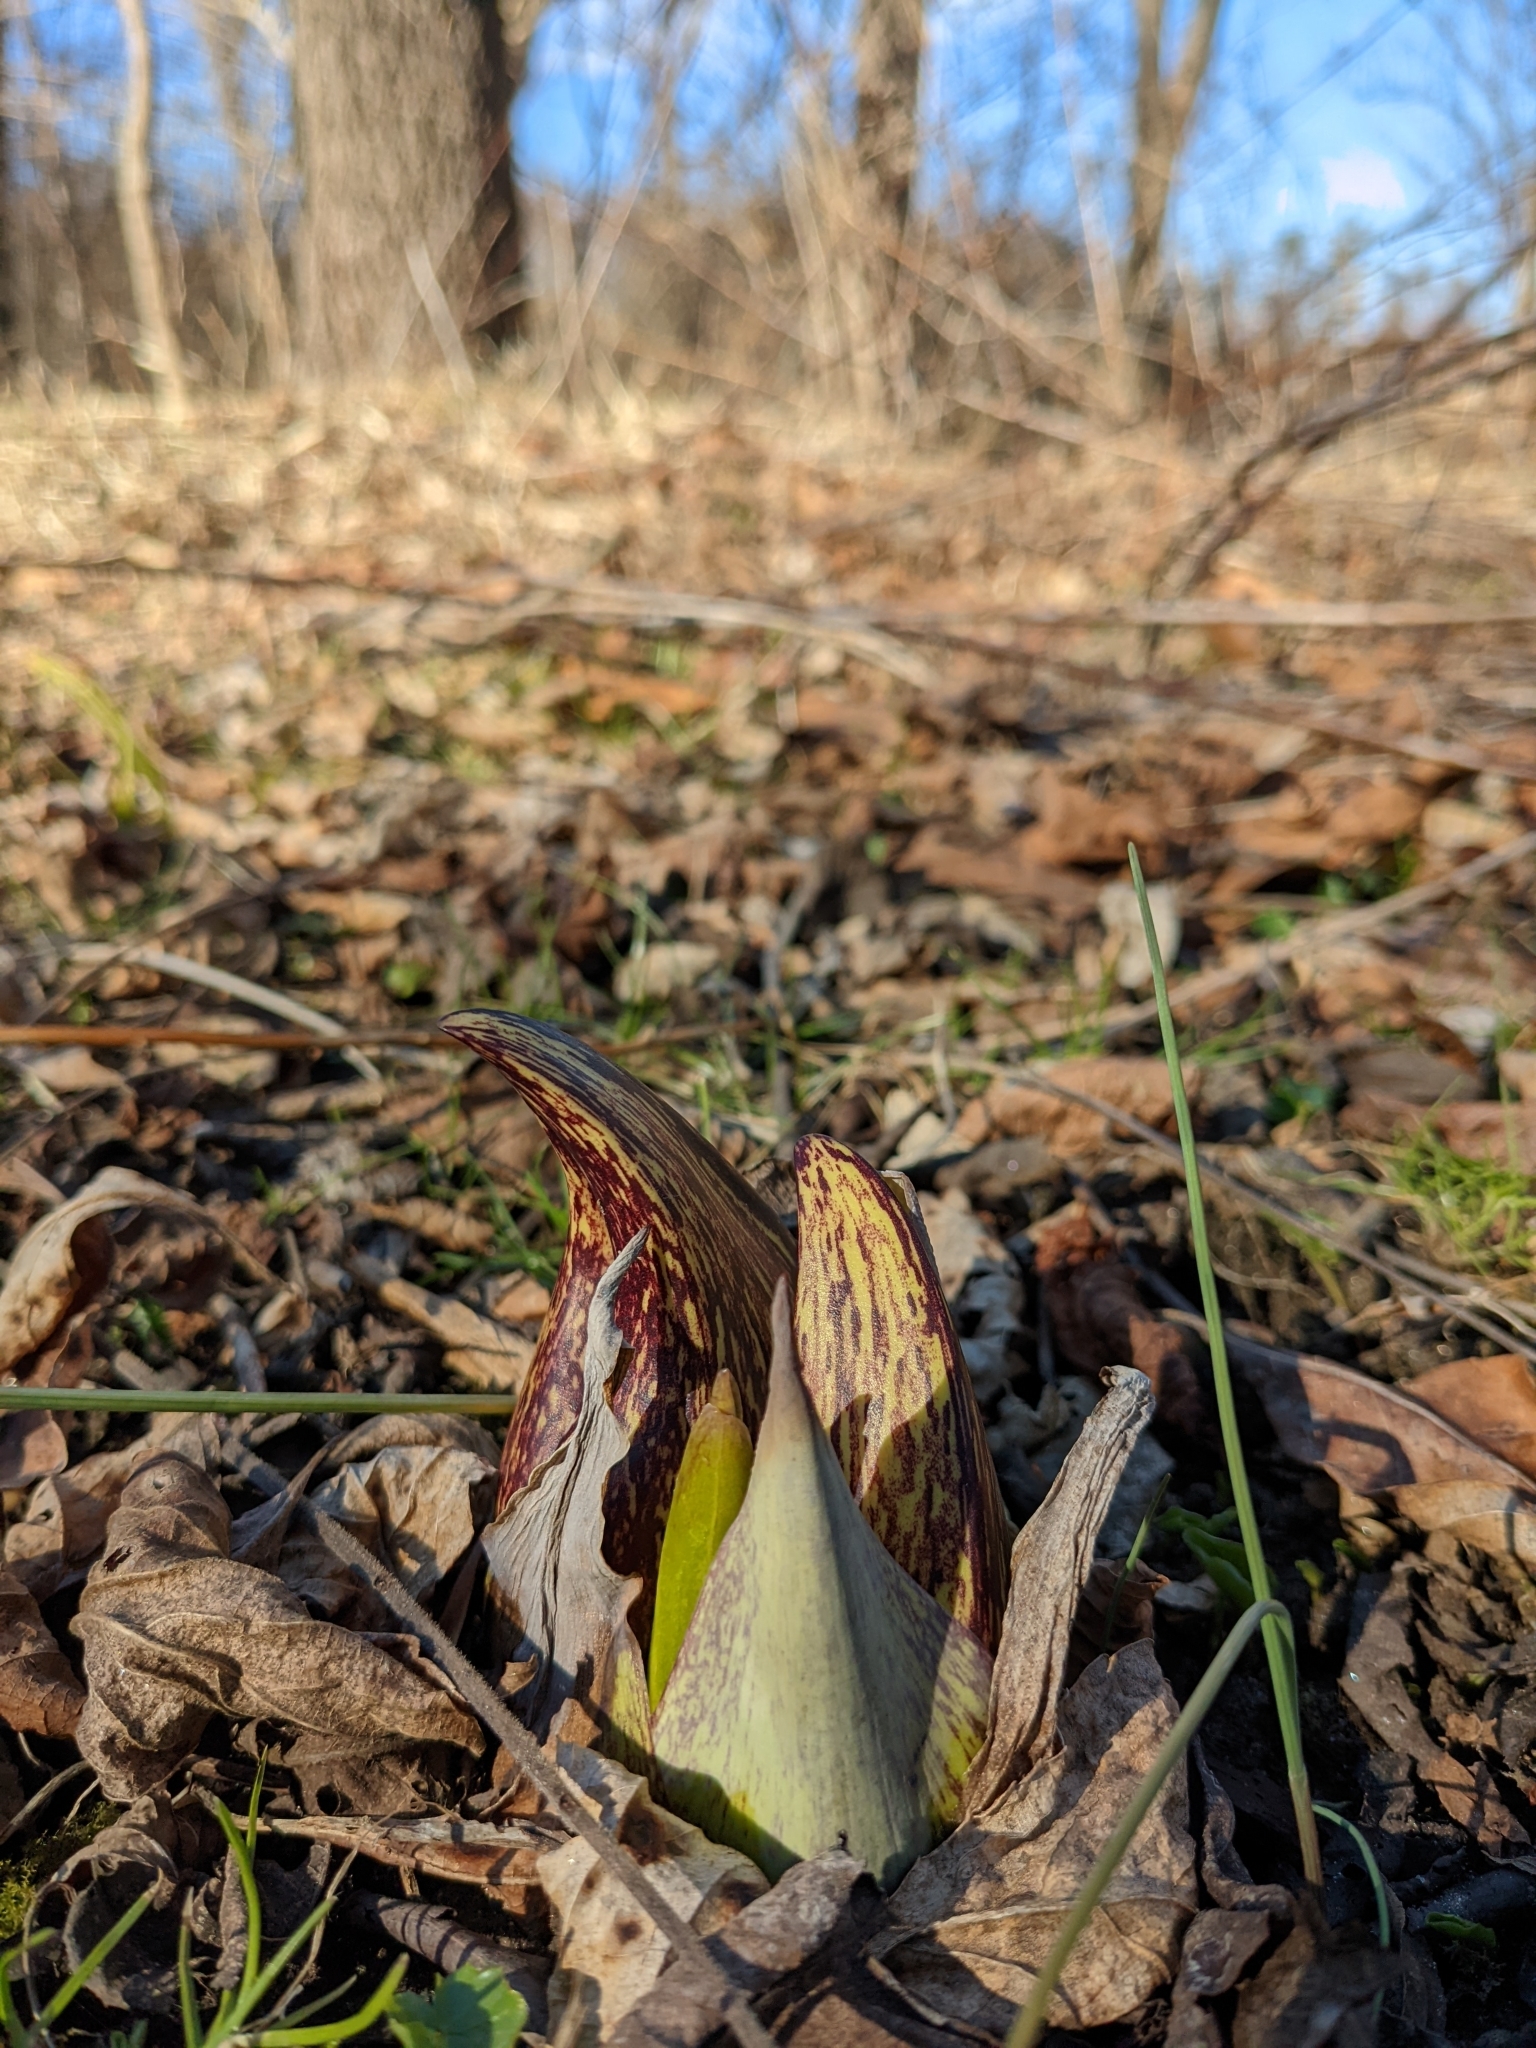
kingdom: Plantae
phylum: Tracheophyta
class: Liliopsida
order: Alismatales
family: Araceae
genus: Symplocarpus
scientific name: Symplocarpus foetidus
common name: Eastern skunk cabbage
